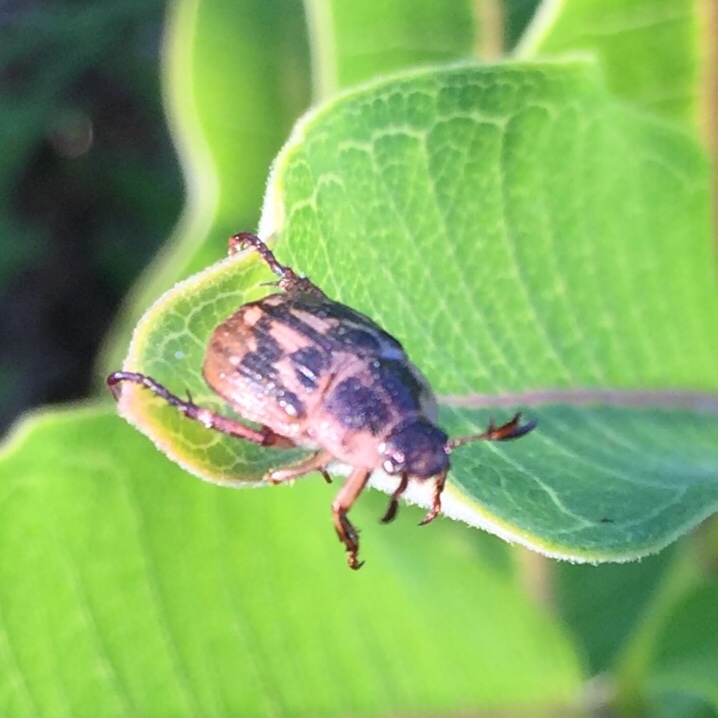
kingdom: Animalia
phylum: Arthropoda
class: Insecta
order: Coleoptera
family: Scarabaeidae
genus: Exomala
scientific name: Exomala orientalis
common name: Oriental beetle
